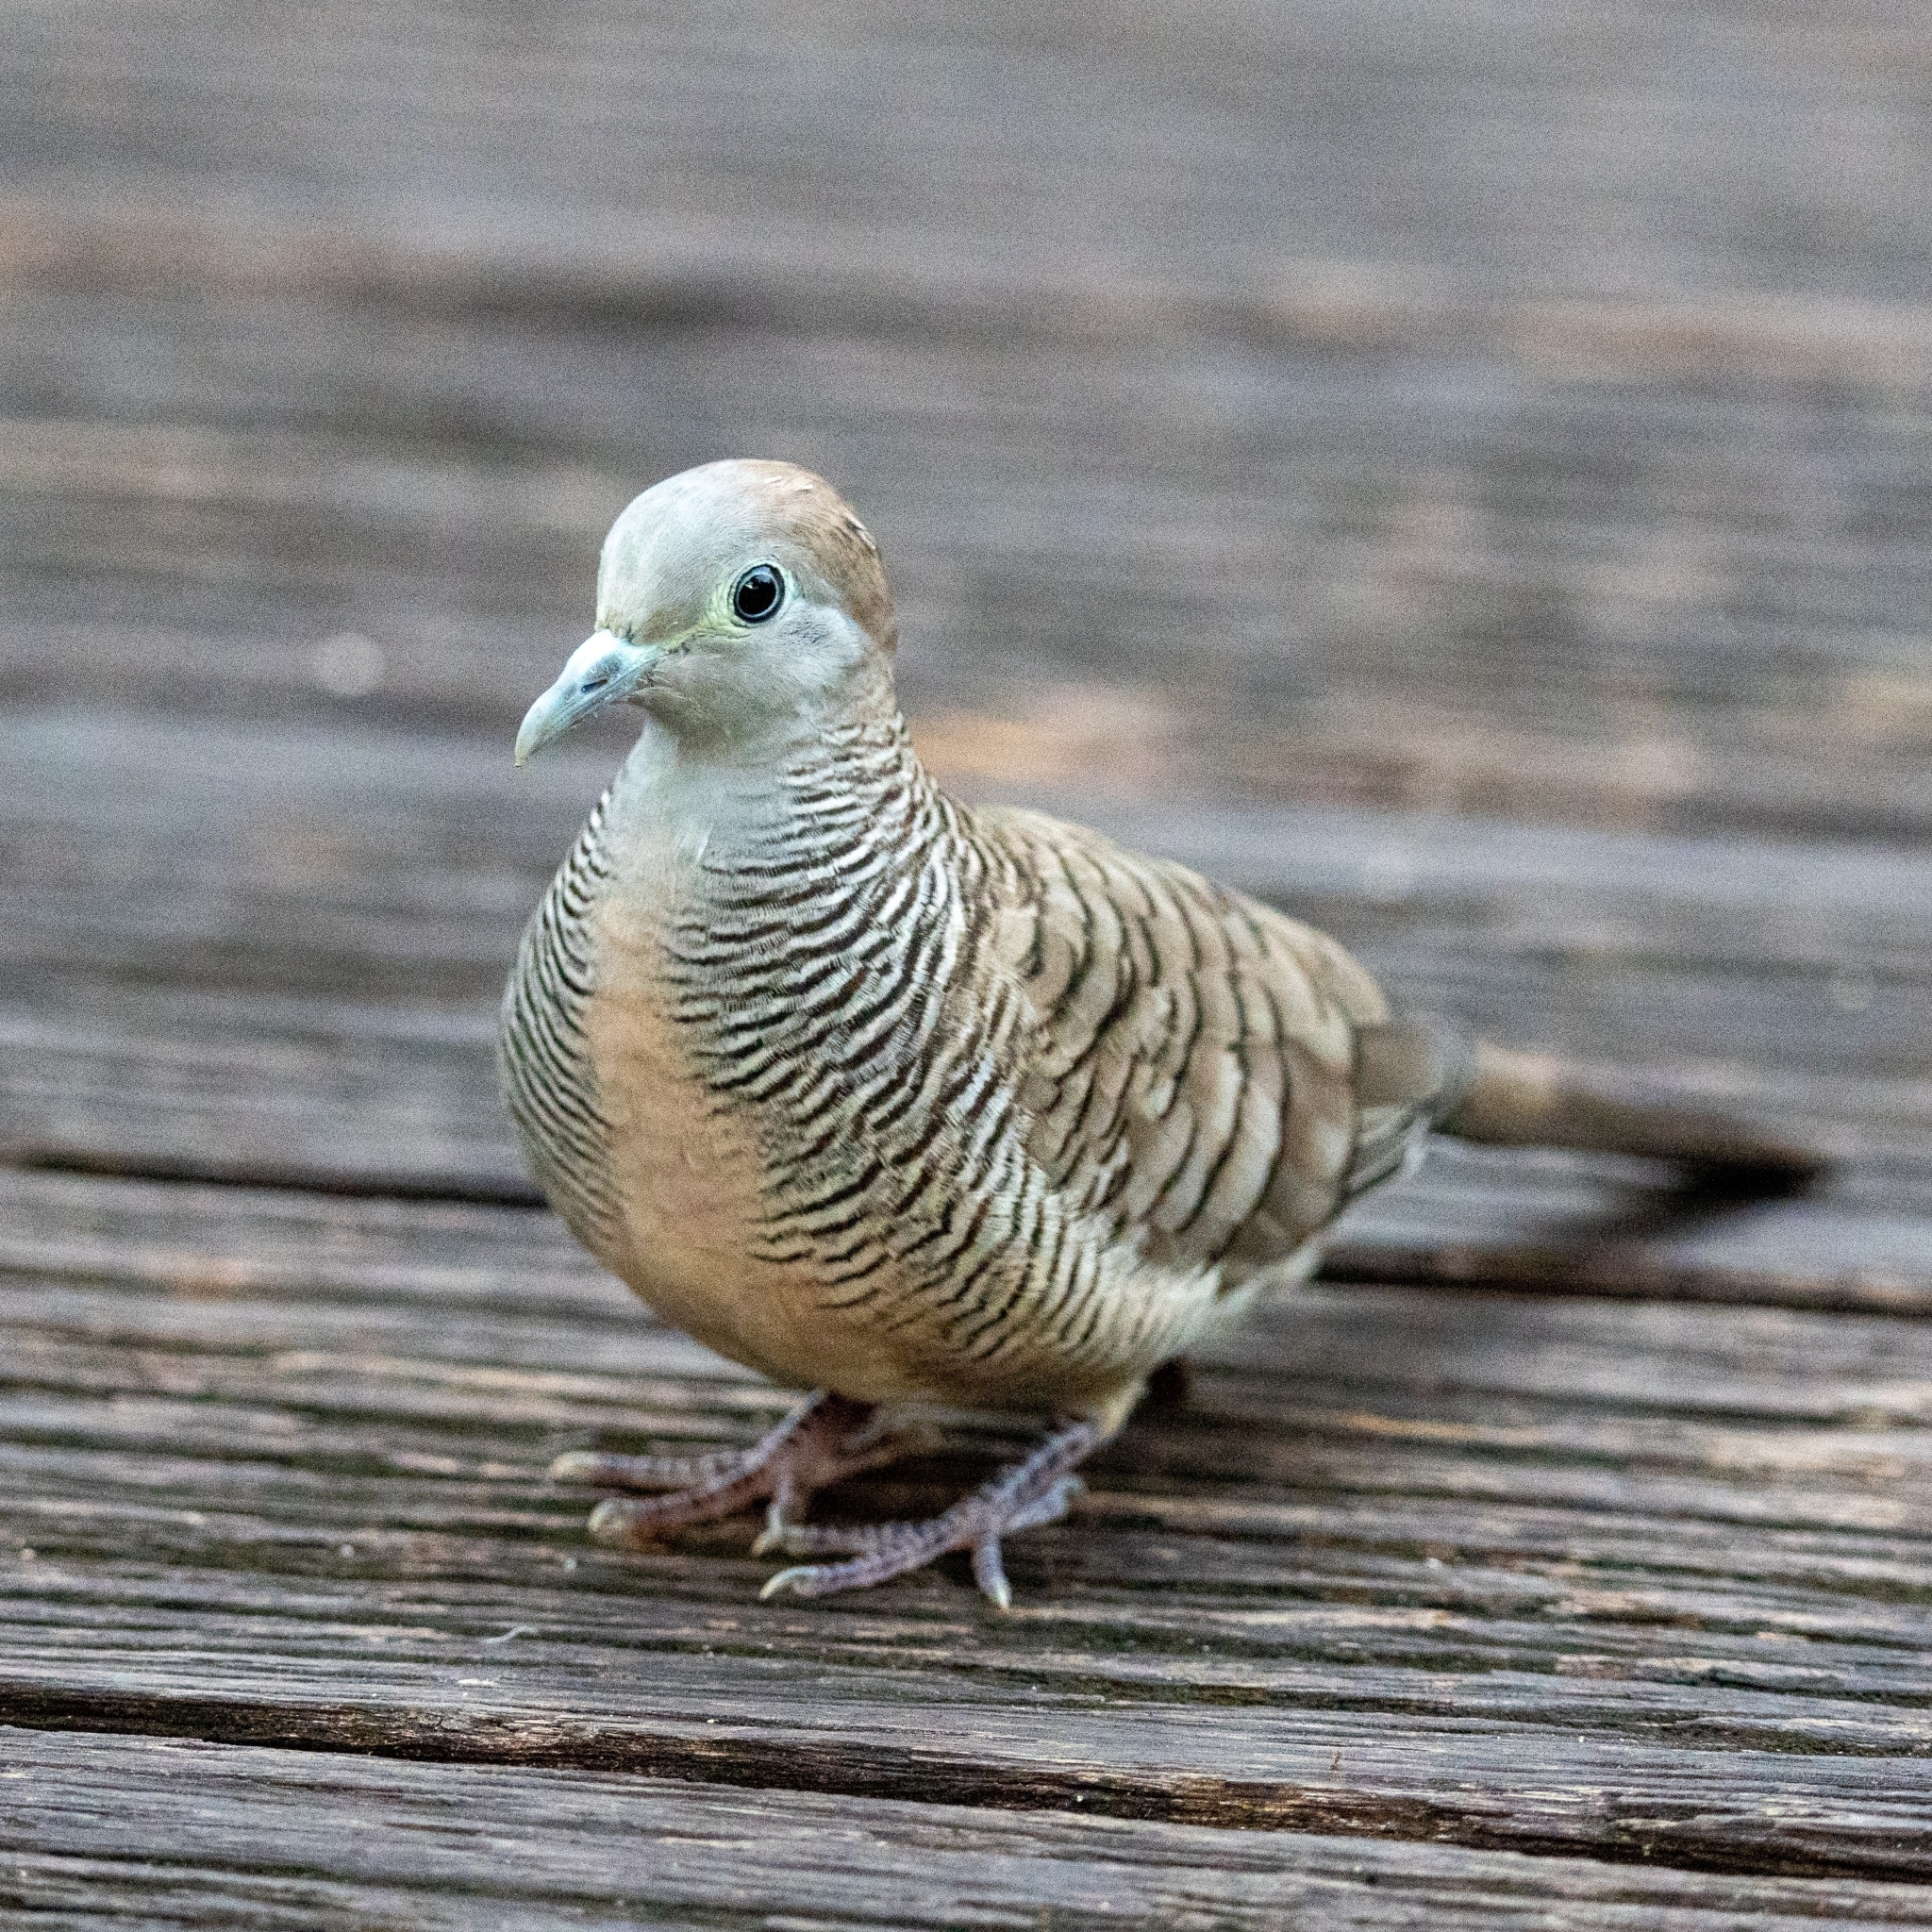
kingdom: Animalia
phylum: Chordata
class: Aves
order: Columbiformes
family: Columbidae
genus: Geopelia
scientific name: Geopelia striata
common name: Zebra dove
